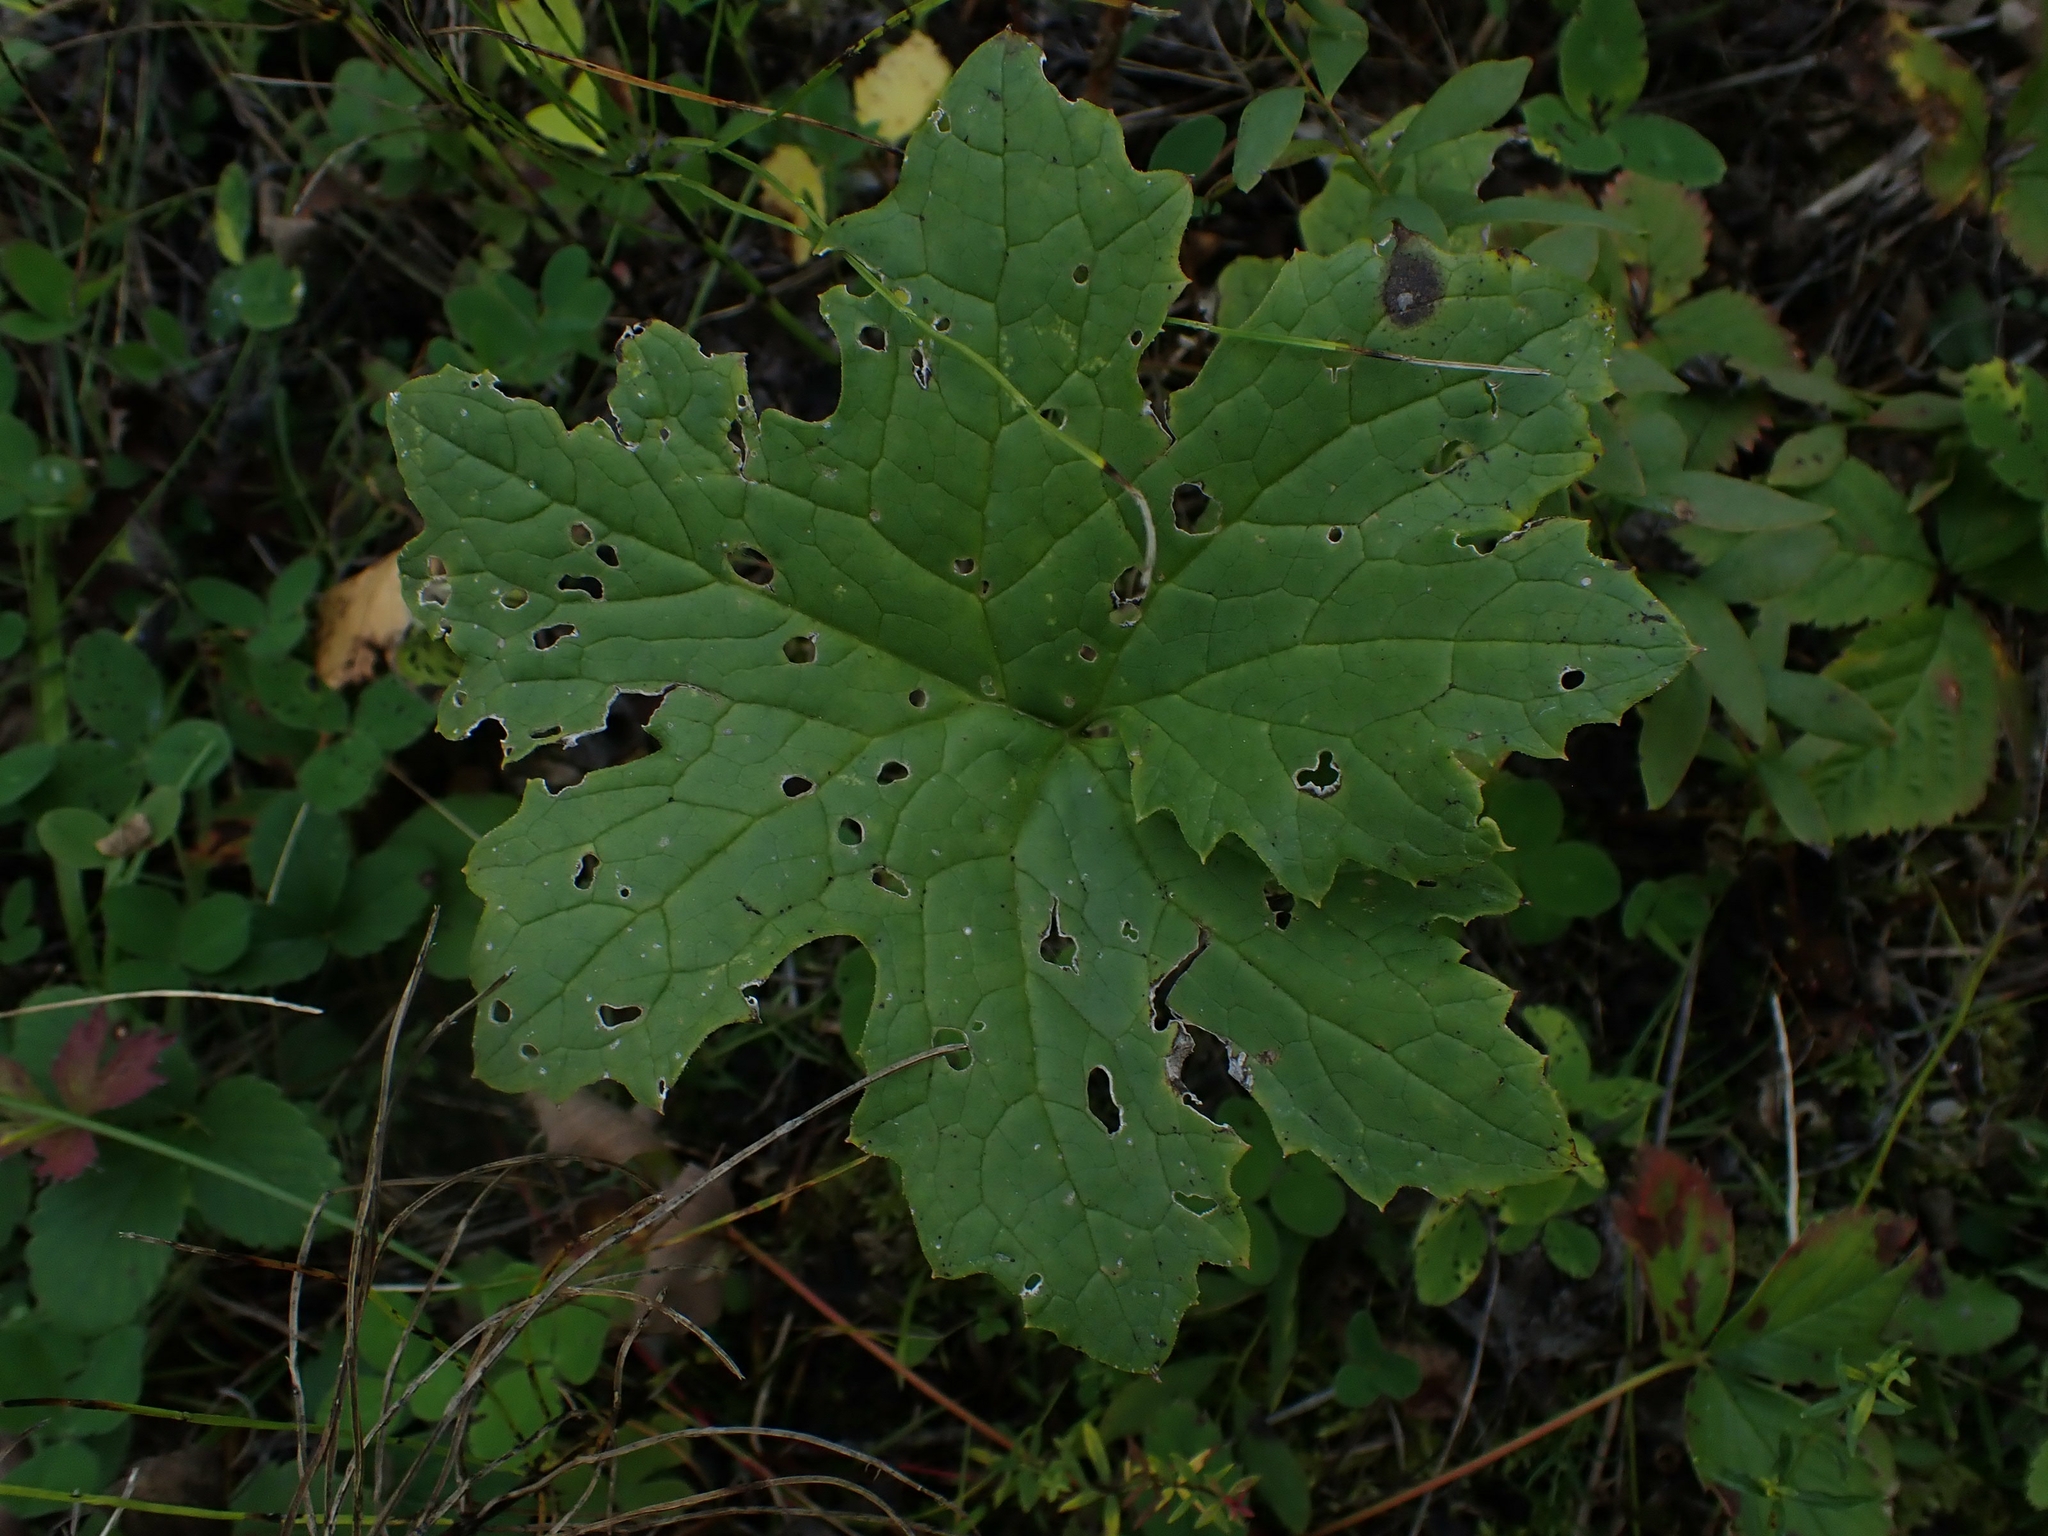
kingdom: Plantae
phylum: Tracheophyta
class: Magnoliopsida
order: Asterales
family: Asteraceae
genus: Petasites
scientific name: Petasites frigidus
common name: Arctic butterbur
